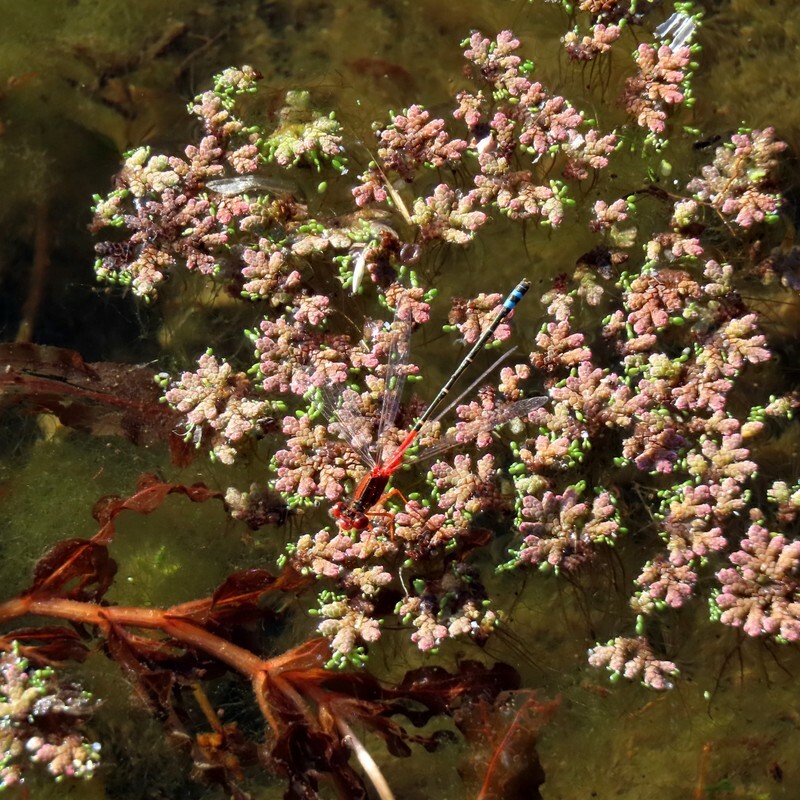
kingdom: Animalia
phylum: Arthropoda
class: Insecta
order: Odonata
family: Coenagrionidae
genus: Xanthagrion
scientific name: Xanthagrion erythroneurum
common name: Red and blue damsel
